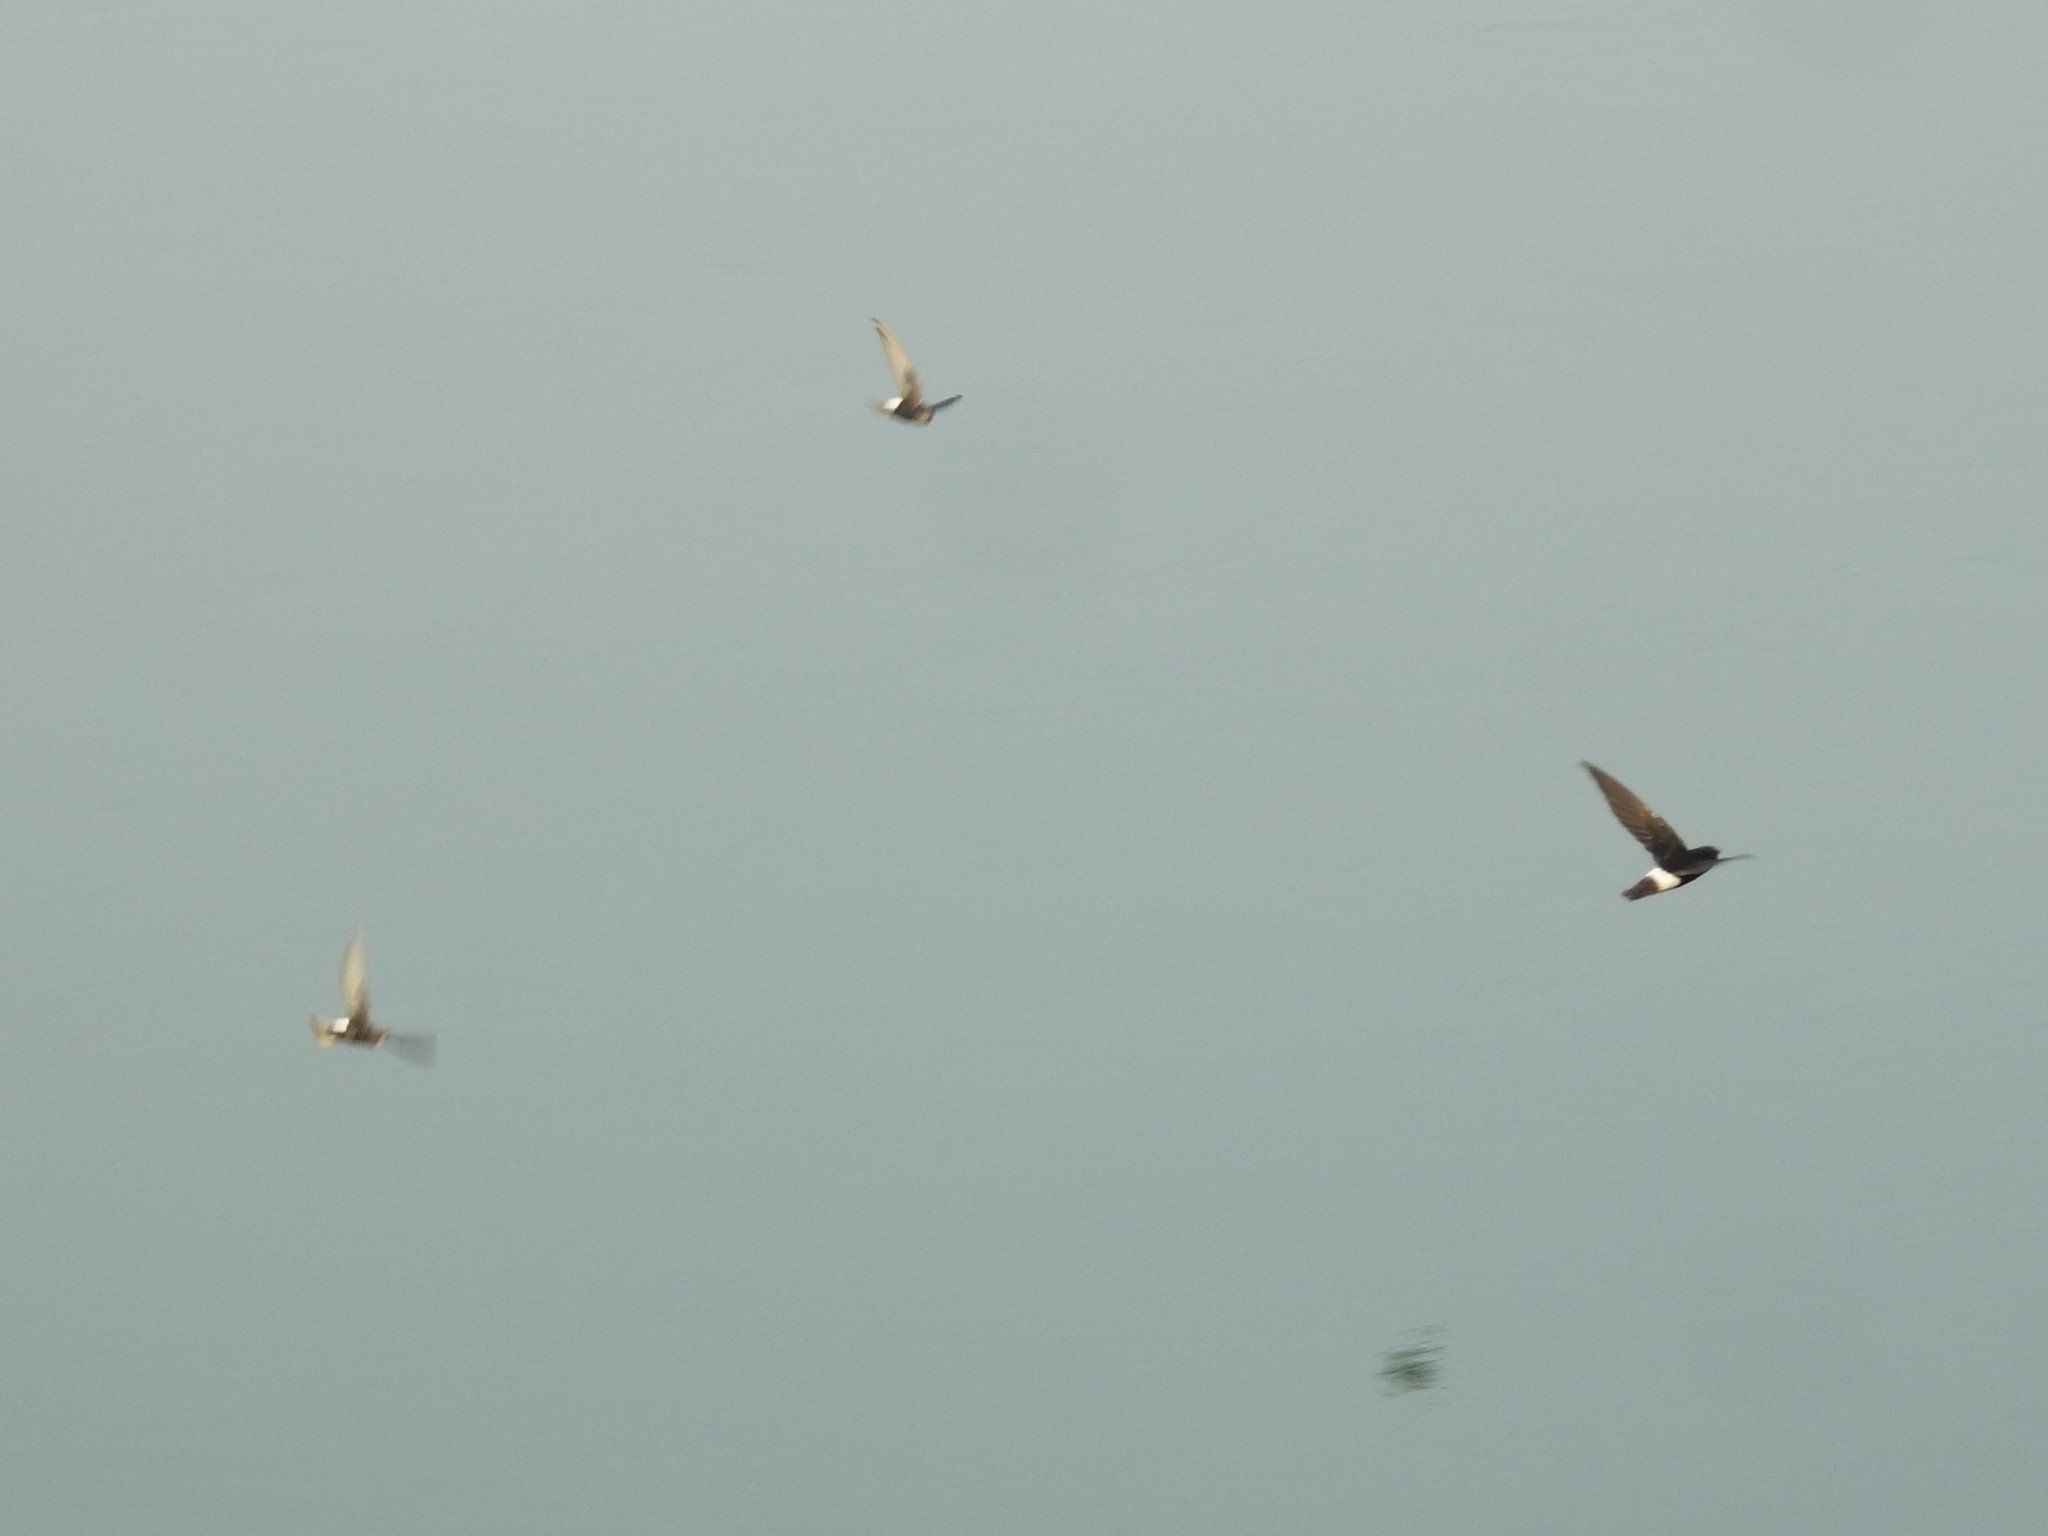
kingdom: Animalia
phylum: Chordata
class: Aves
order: Apodiformes
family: Apodidae
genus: Apus
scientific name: Apus affinis
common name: Little swift
